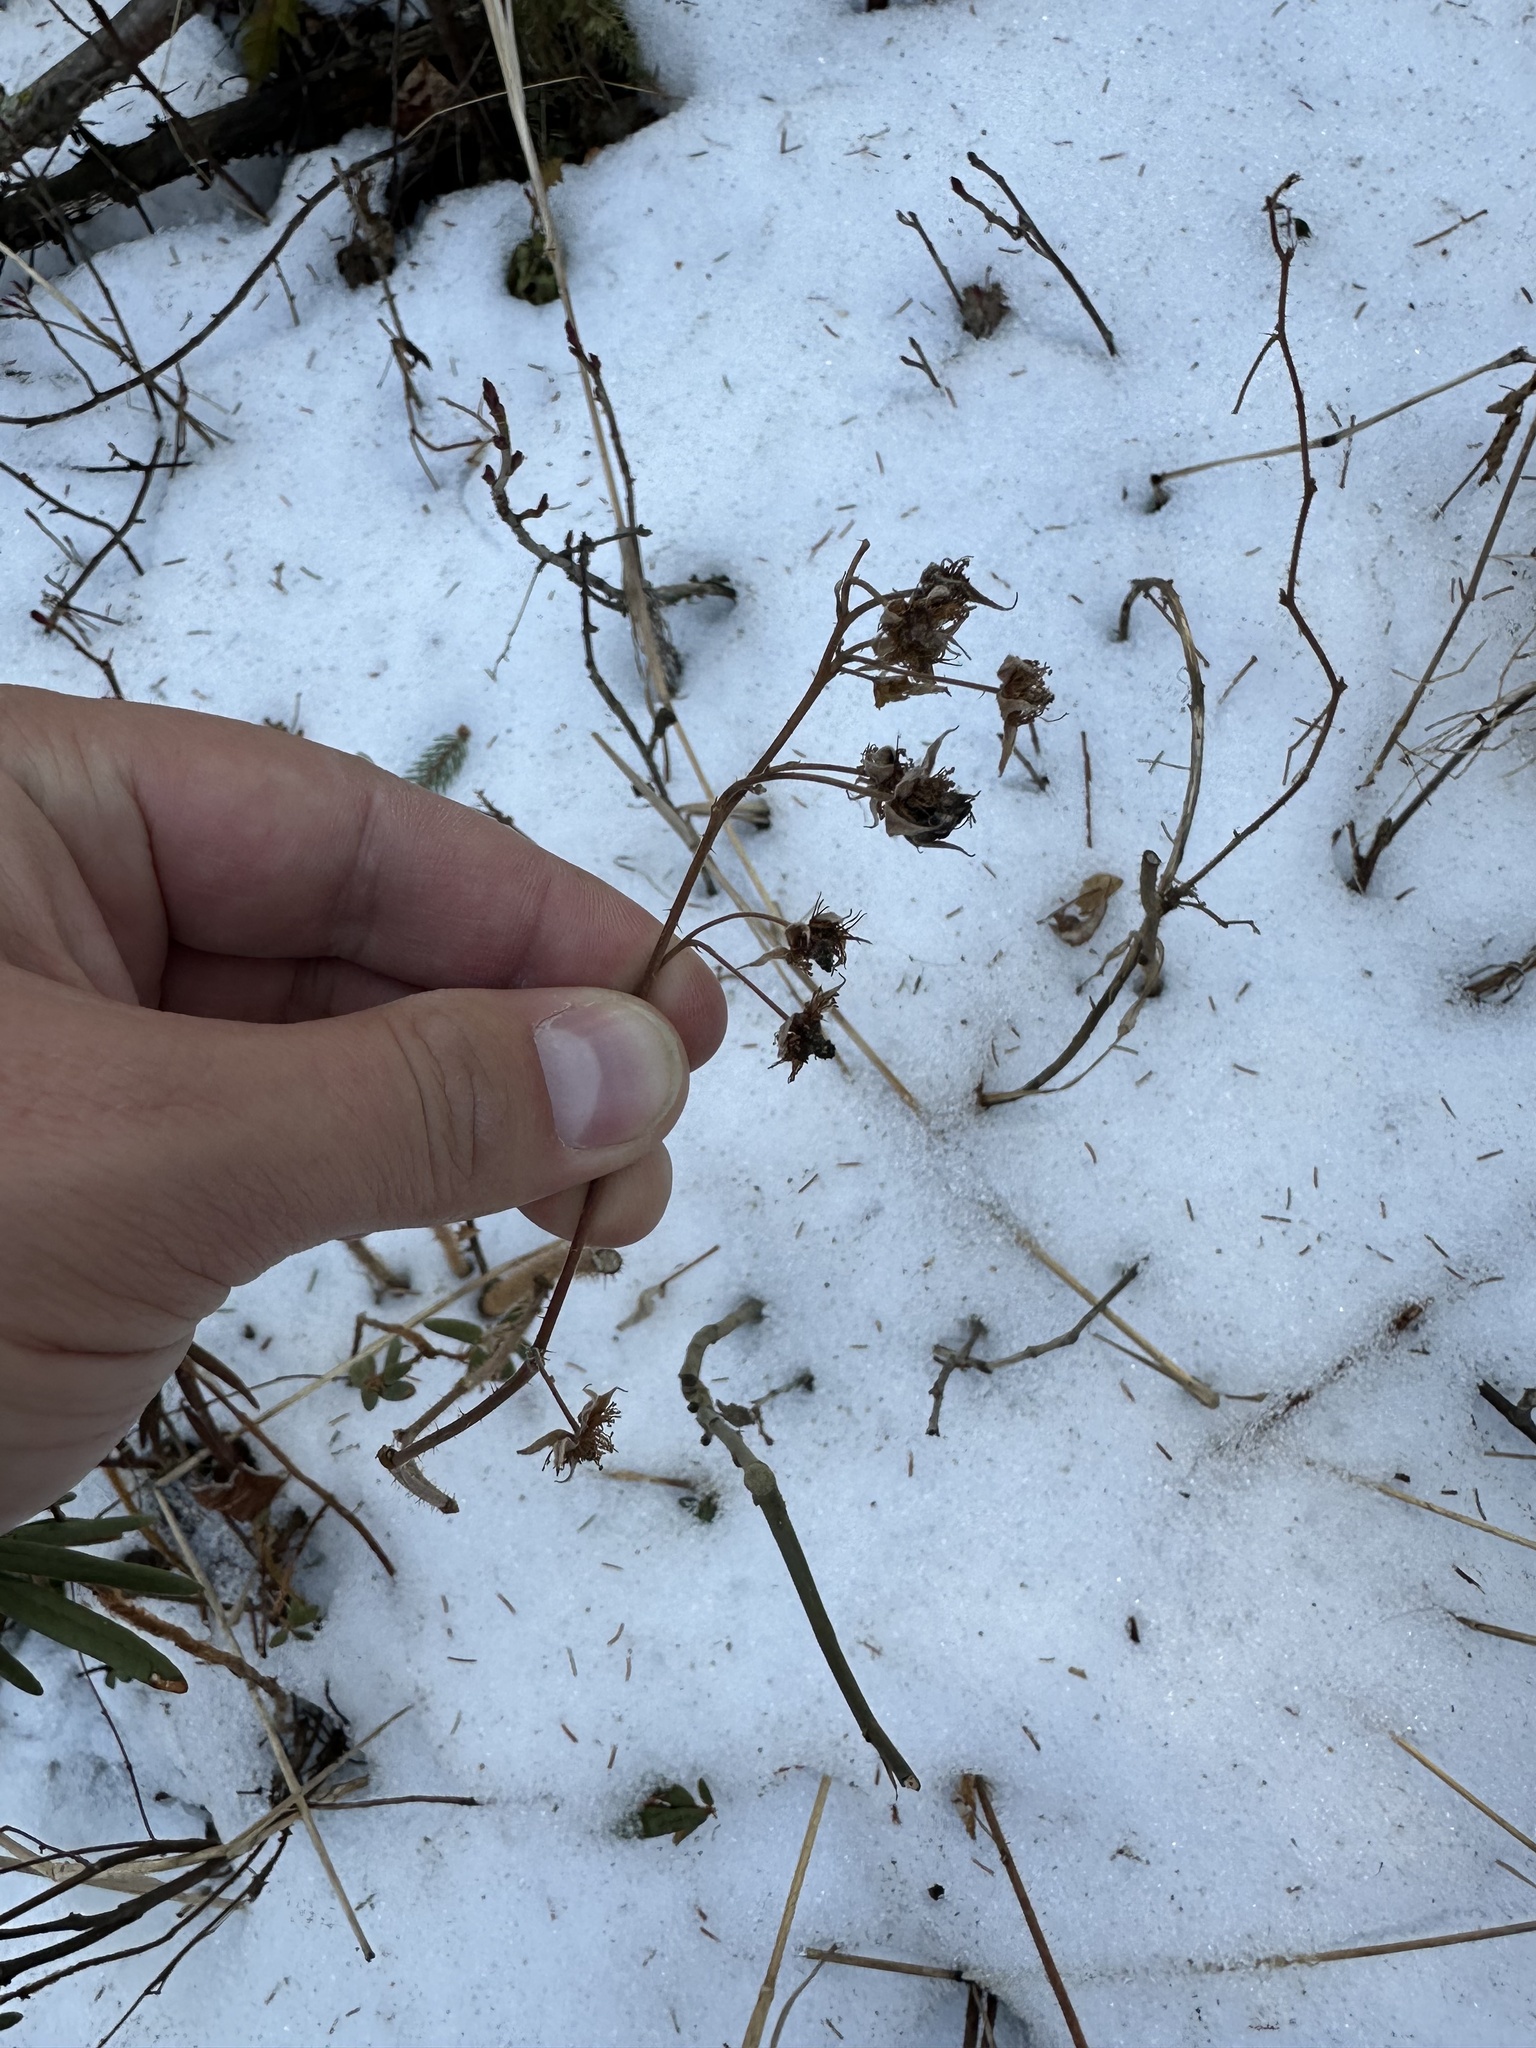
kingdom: Plantae
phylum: Tracheophyta
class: Magnoliopsida
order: Rosales
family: Rosaceae
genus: Rubus
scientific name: Rubus idaeus
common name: Raspberry
